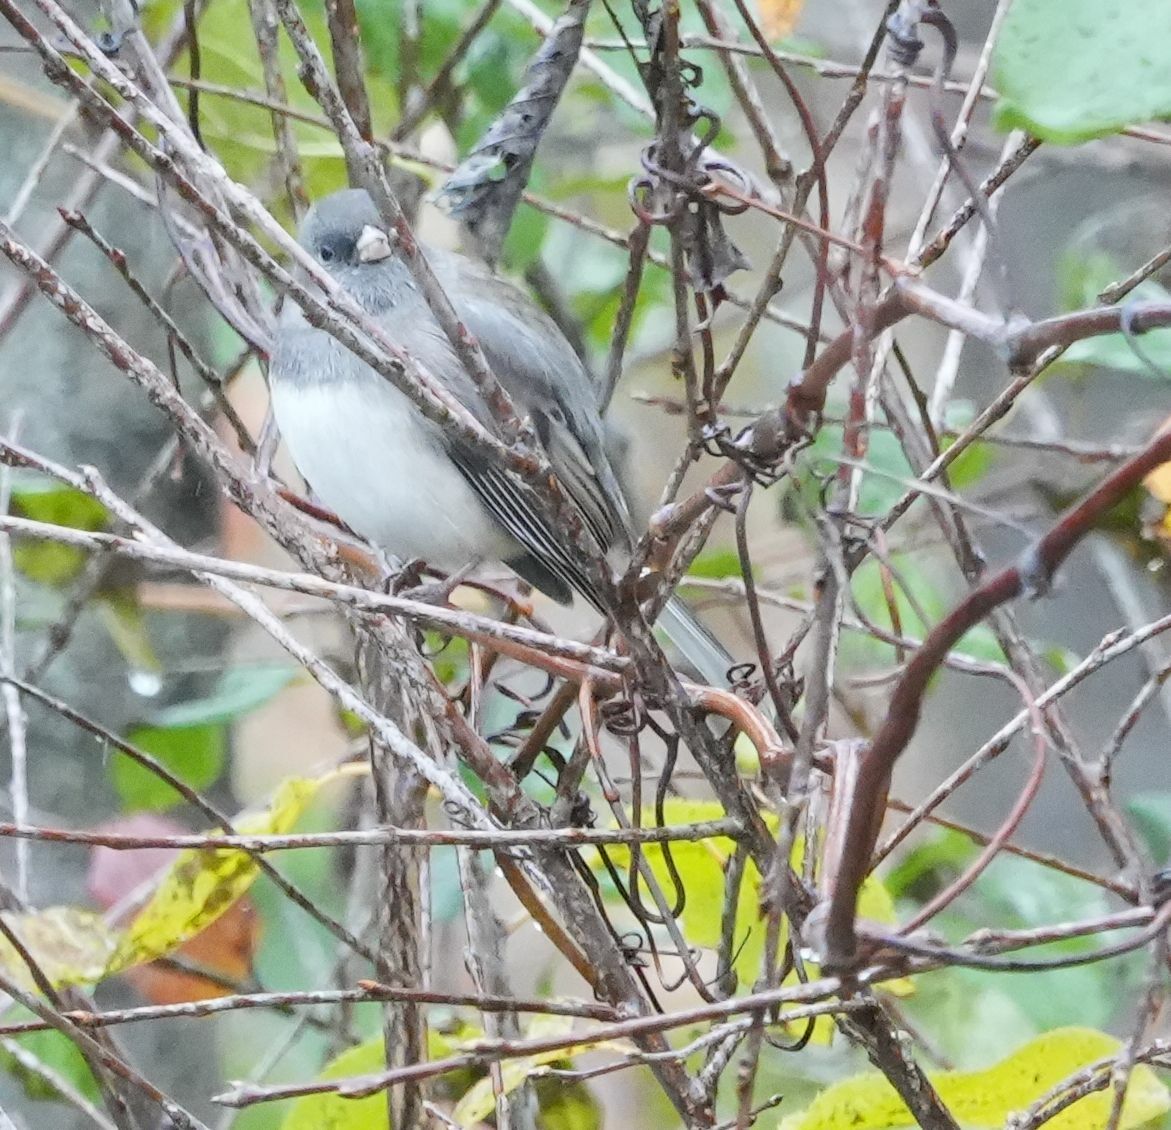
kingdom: Animalia
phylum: Chordata
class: Aves
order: Passeriformes
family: Passerellidae
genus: Junco
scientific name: Junco hyemalis
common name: Dark-eyed junco
